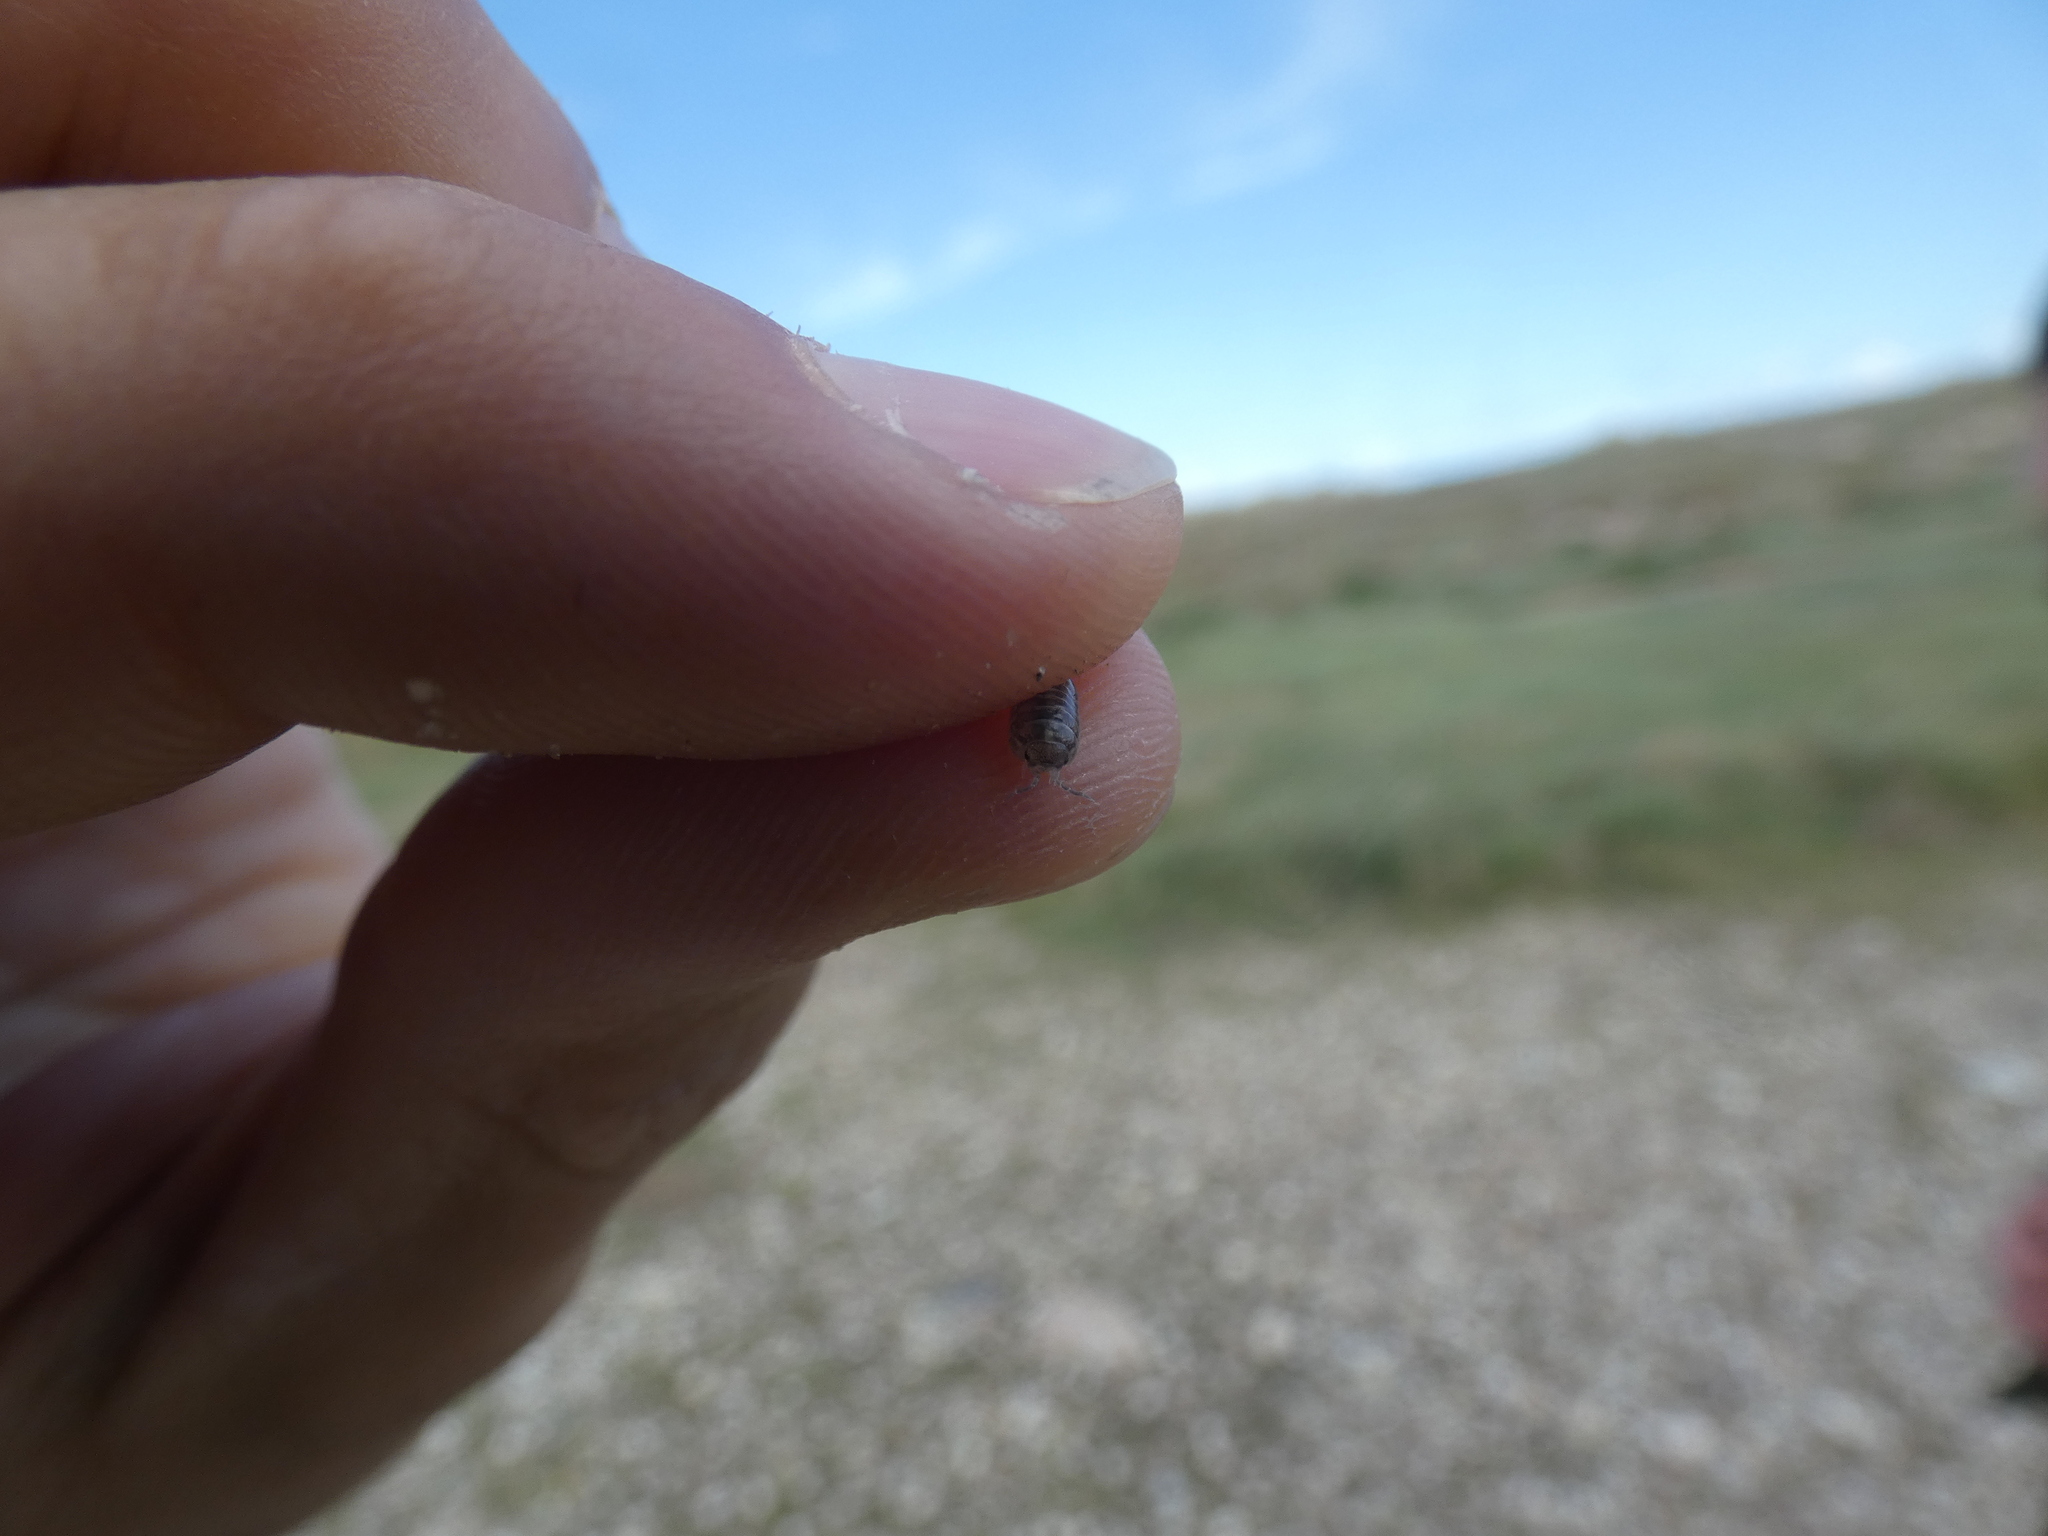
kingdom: Animalia
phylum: Arthropoda
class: Malacostraca
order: Isopoda
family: Armadillidiidae
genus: Armadillidium
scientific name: Armadillidium vulgare
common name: Common pill woodlouse
